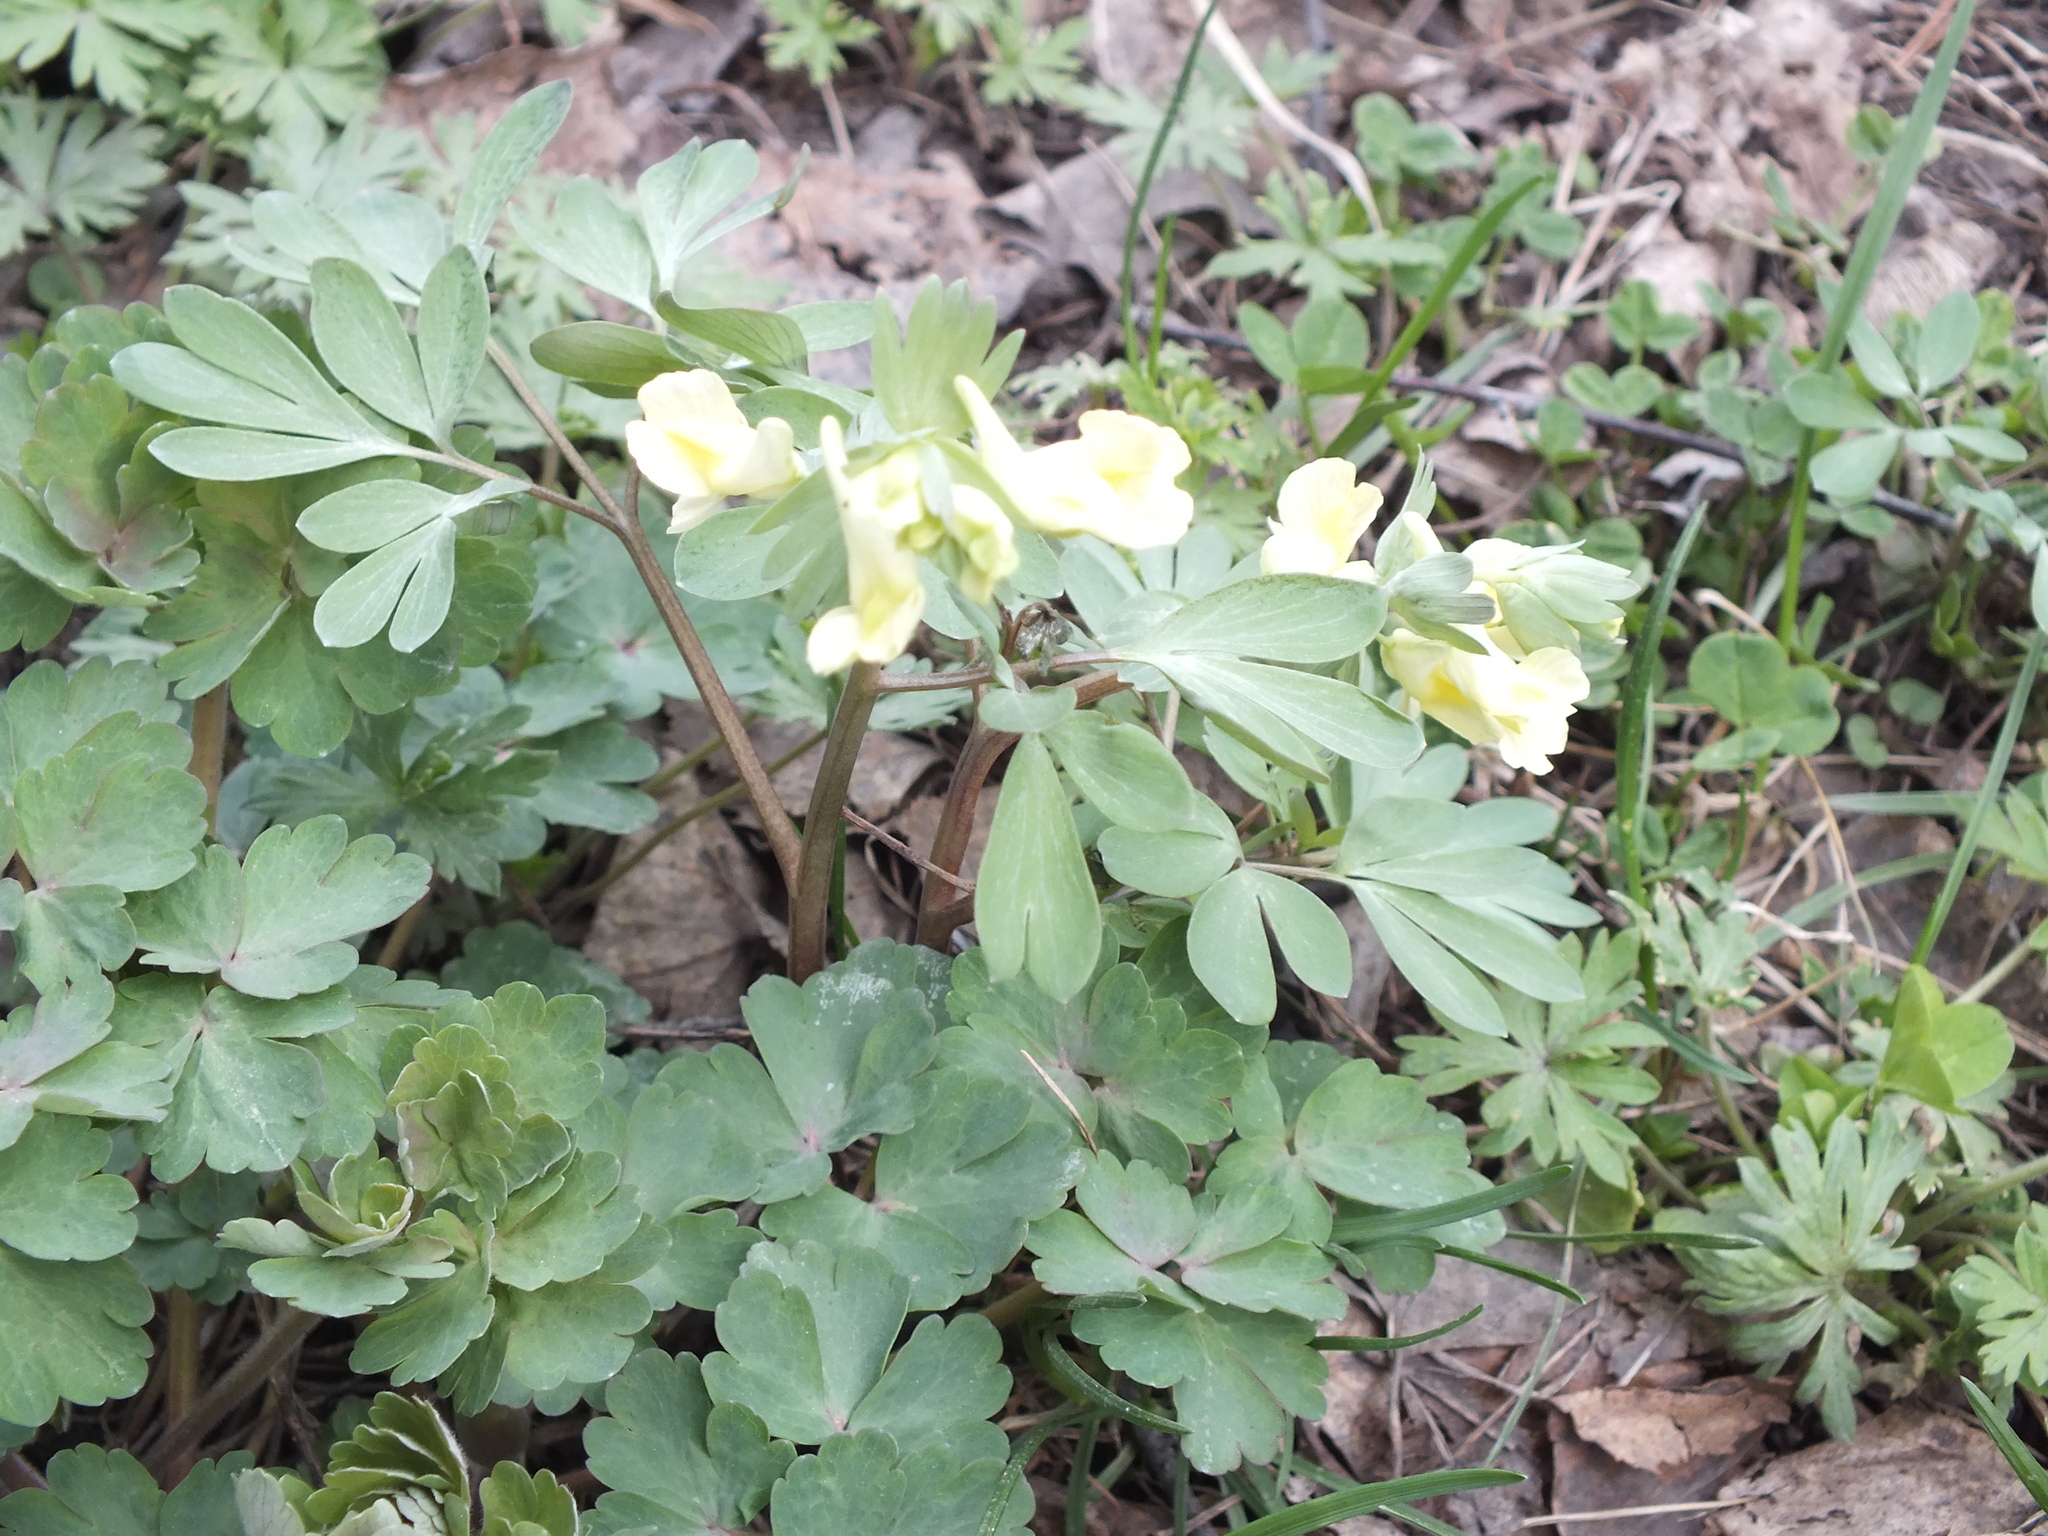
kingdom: Plantae
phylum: Tracheophyta
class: Magnoliopsida
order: Ranunculales
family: Papaveraceae
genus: Corydalis
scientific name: Corydalis bracteata
